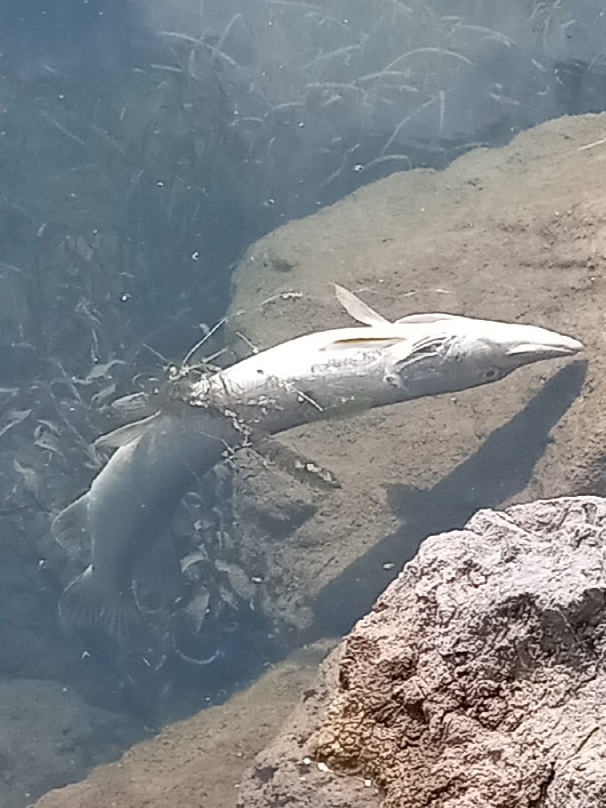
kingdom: Animalia
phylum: Chordata
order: Esociformes
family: Esocidae
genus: Esox
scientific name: Esox masquinongy
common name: Muskellunge
